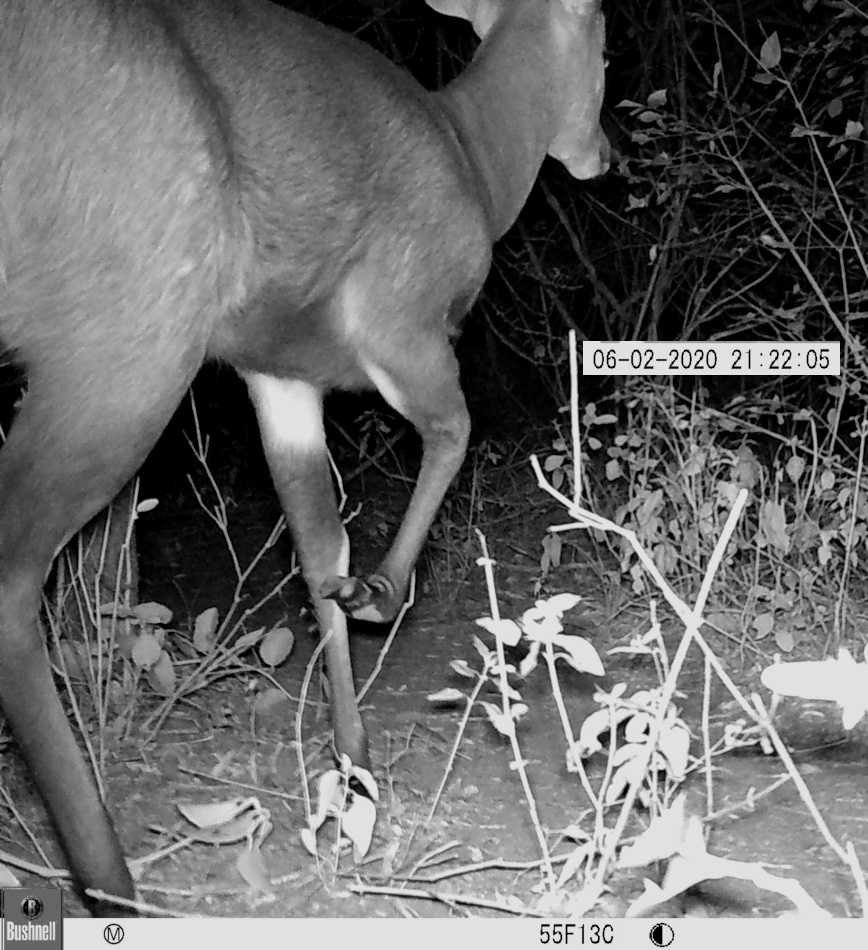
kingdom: Animalia
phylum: Chordata
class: Mammalia
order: Artiodactyla
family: Bovidae
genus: Tragelaphus
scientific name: Tragelaphus scriptus
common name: Bushbuck
